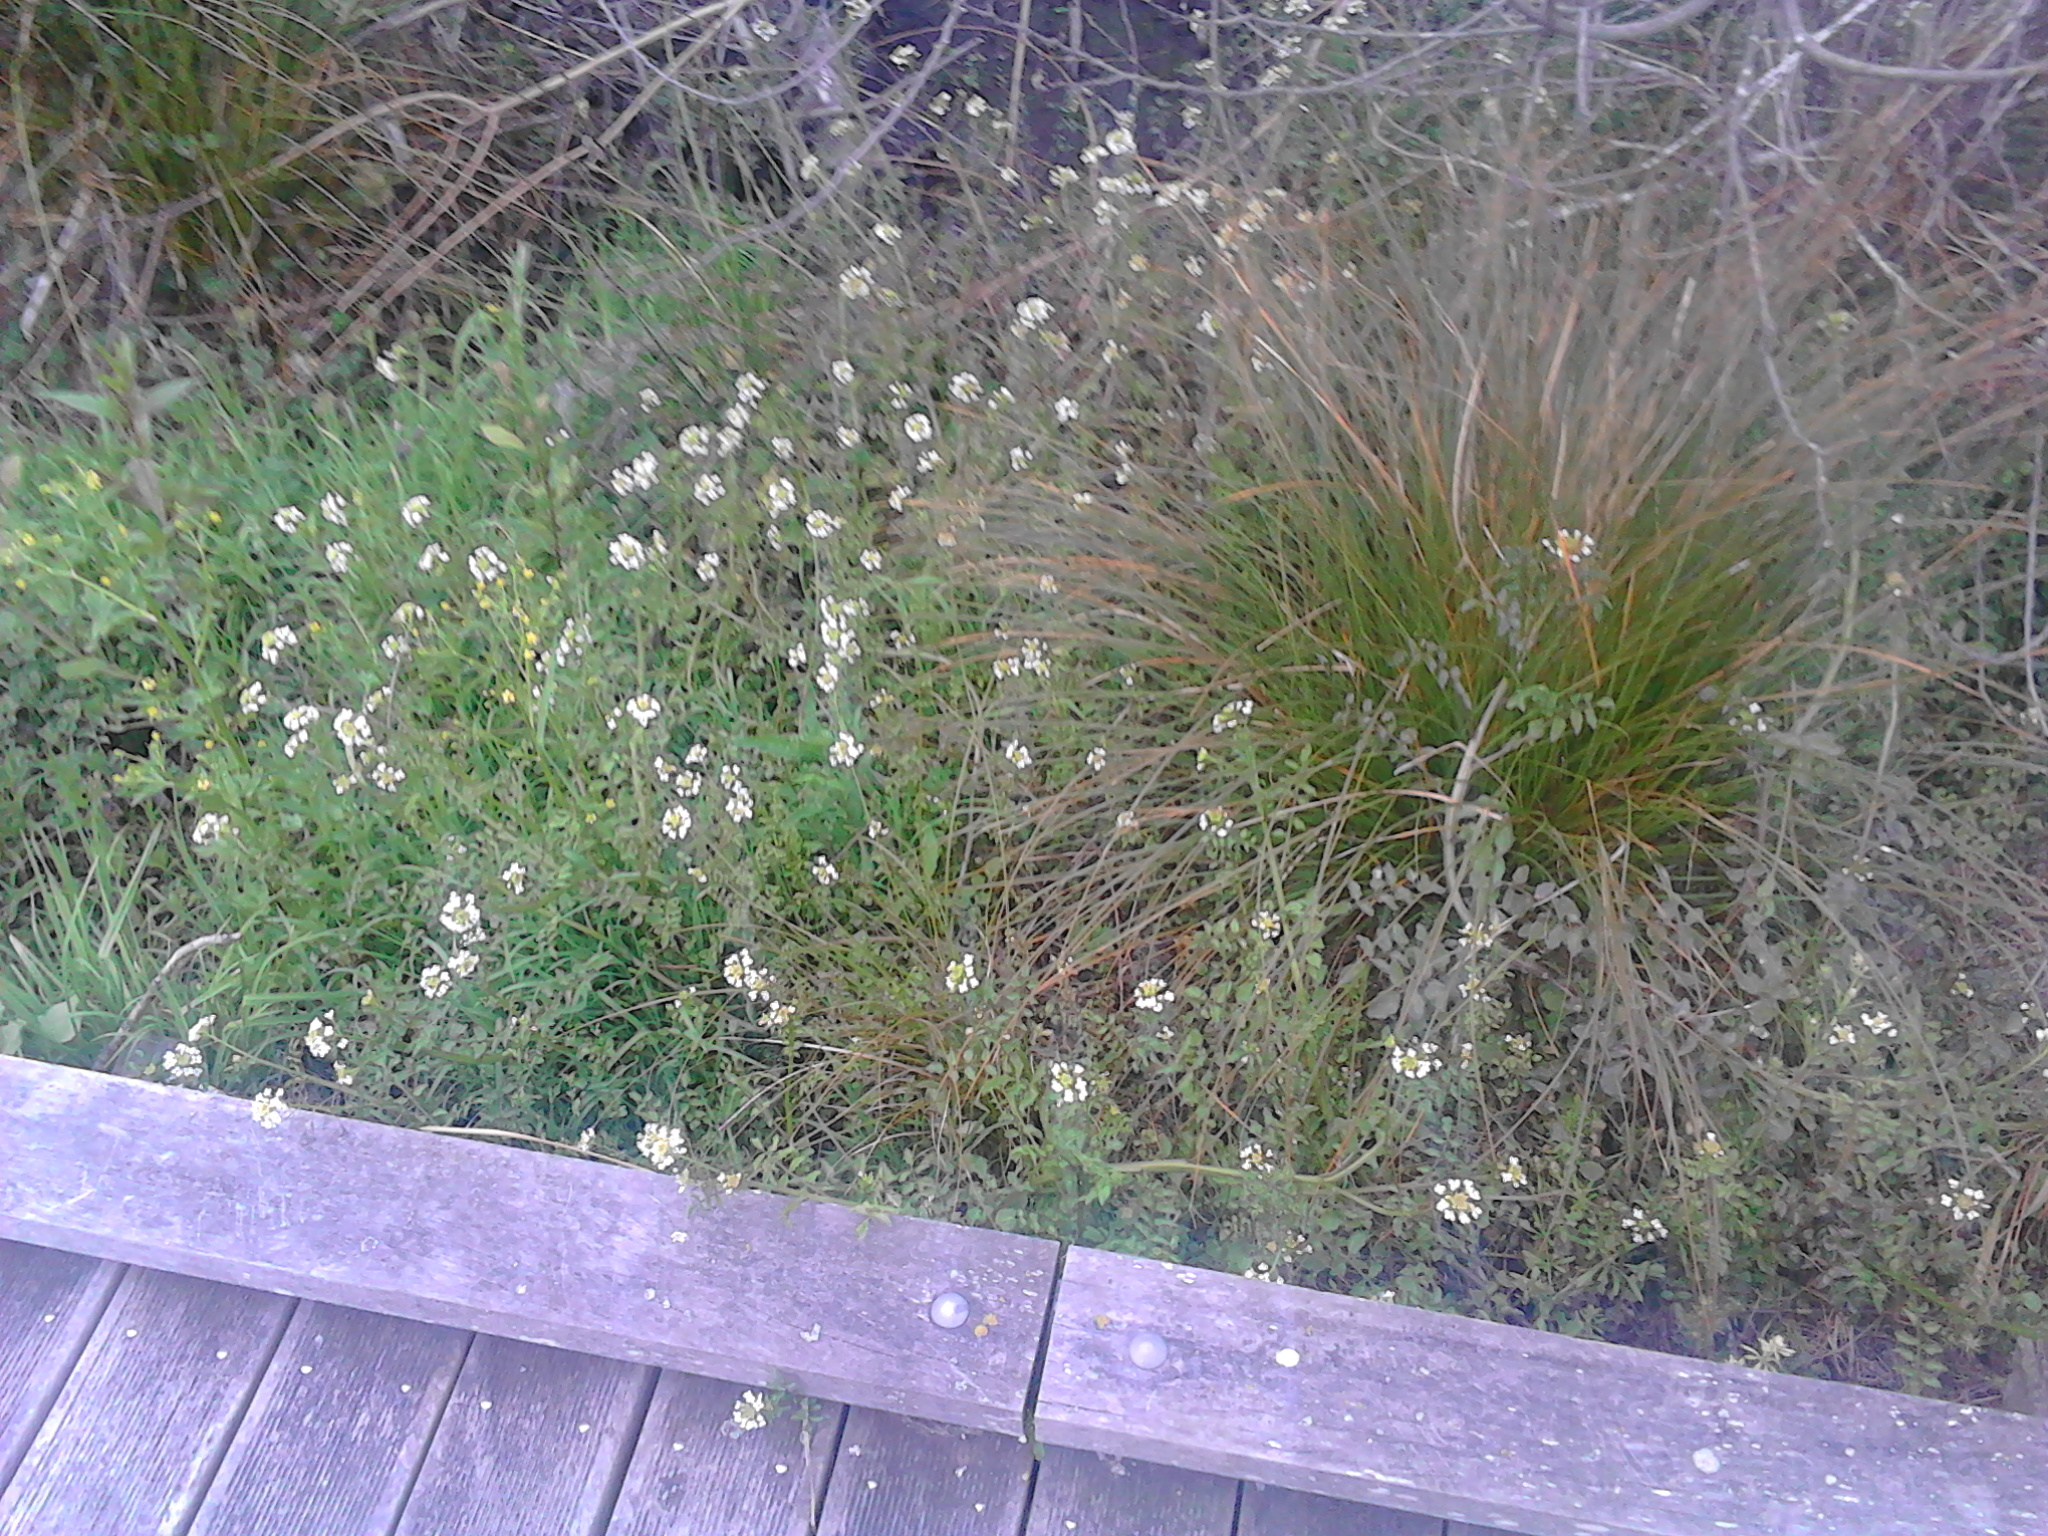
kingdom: Plantae
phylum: Tracheophyta
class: Magnoliopsida
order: Brassicales
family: Brassicaceae
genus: Nasturtium
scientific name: Nasturtium officinale
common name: Watercress
